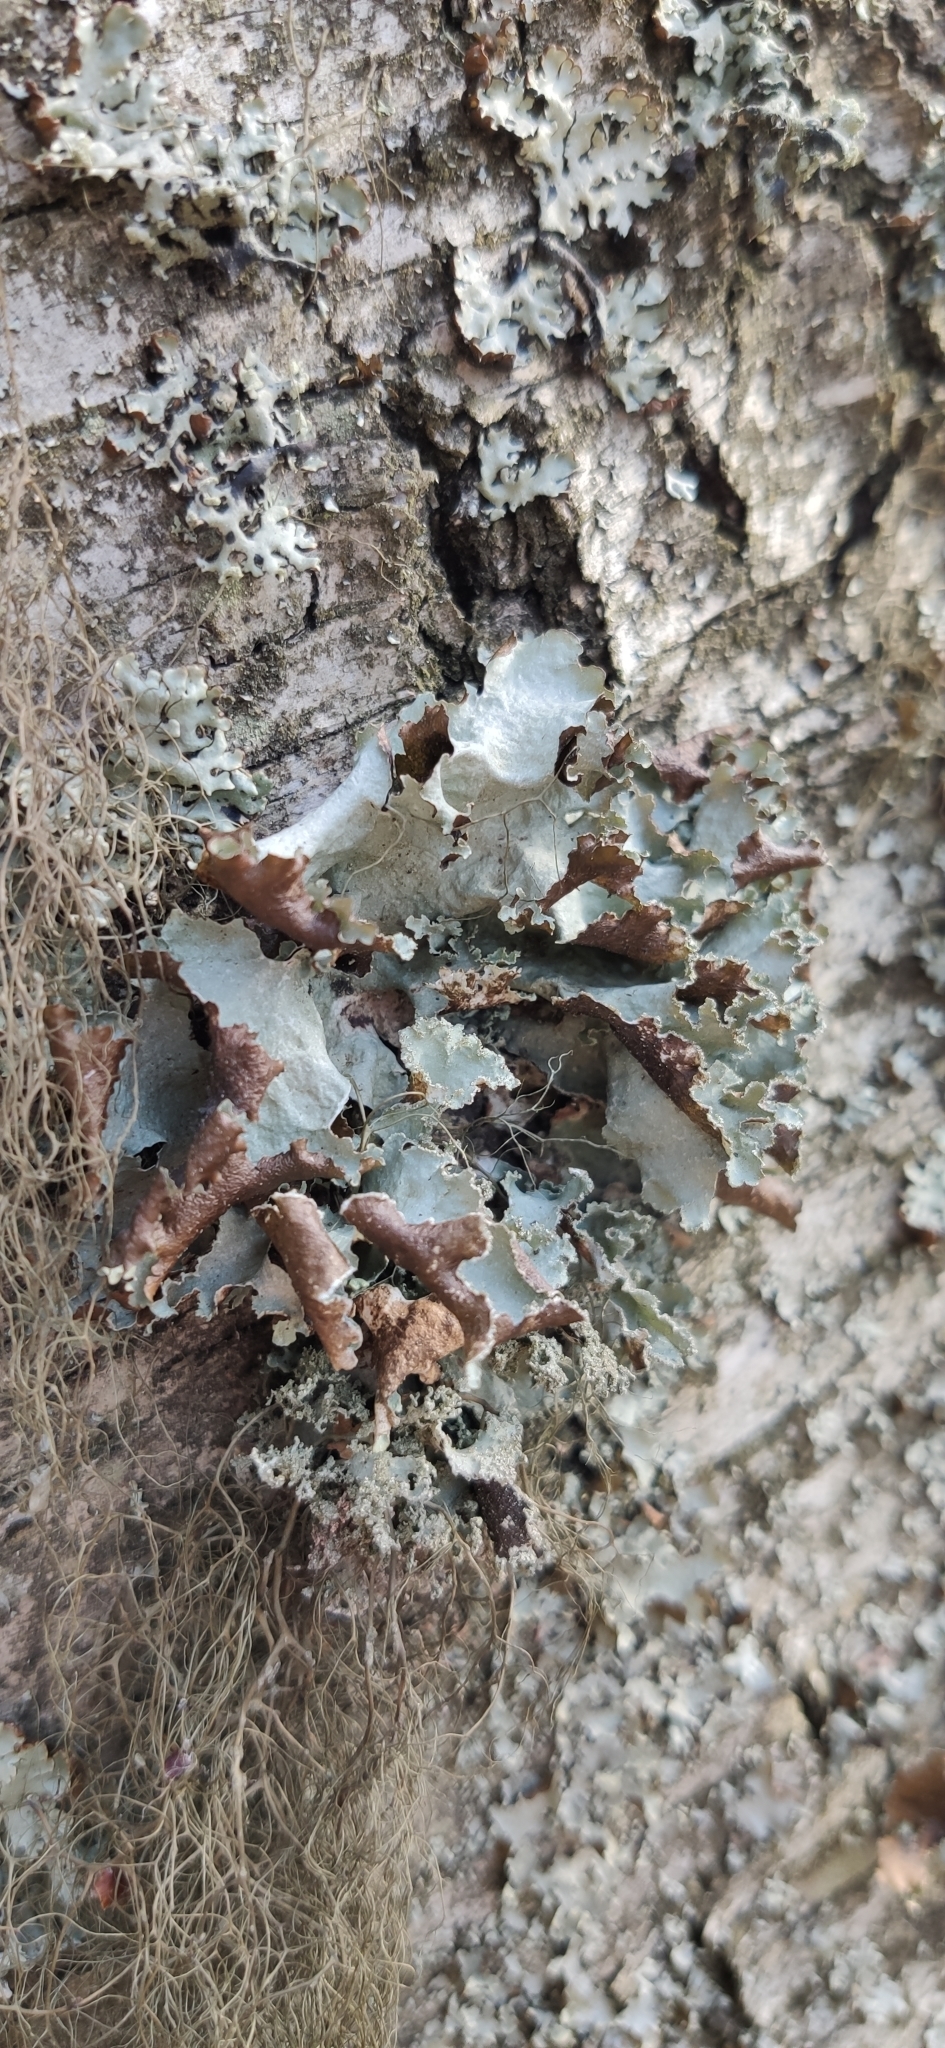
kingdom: Fungi
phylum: Ascomycota
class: Lecanoromycetes
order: Lecanorales
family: Parmeliaceae
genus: Platismatia
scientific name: Platismatia glauca
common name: Varied rag lichen
